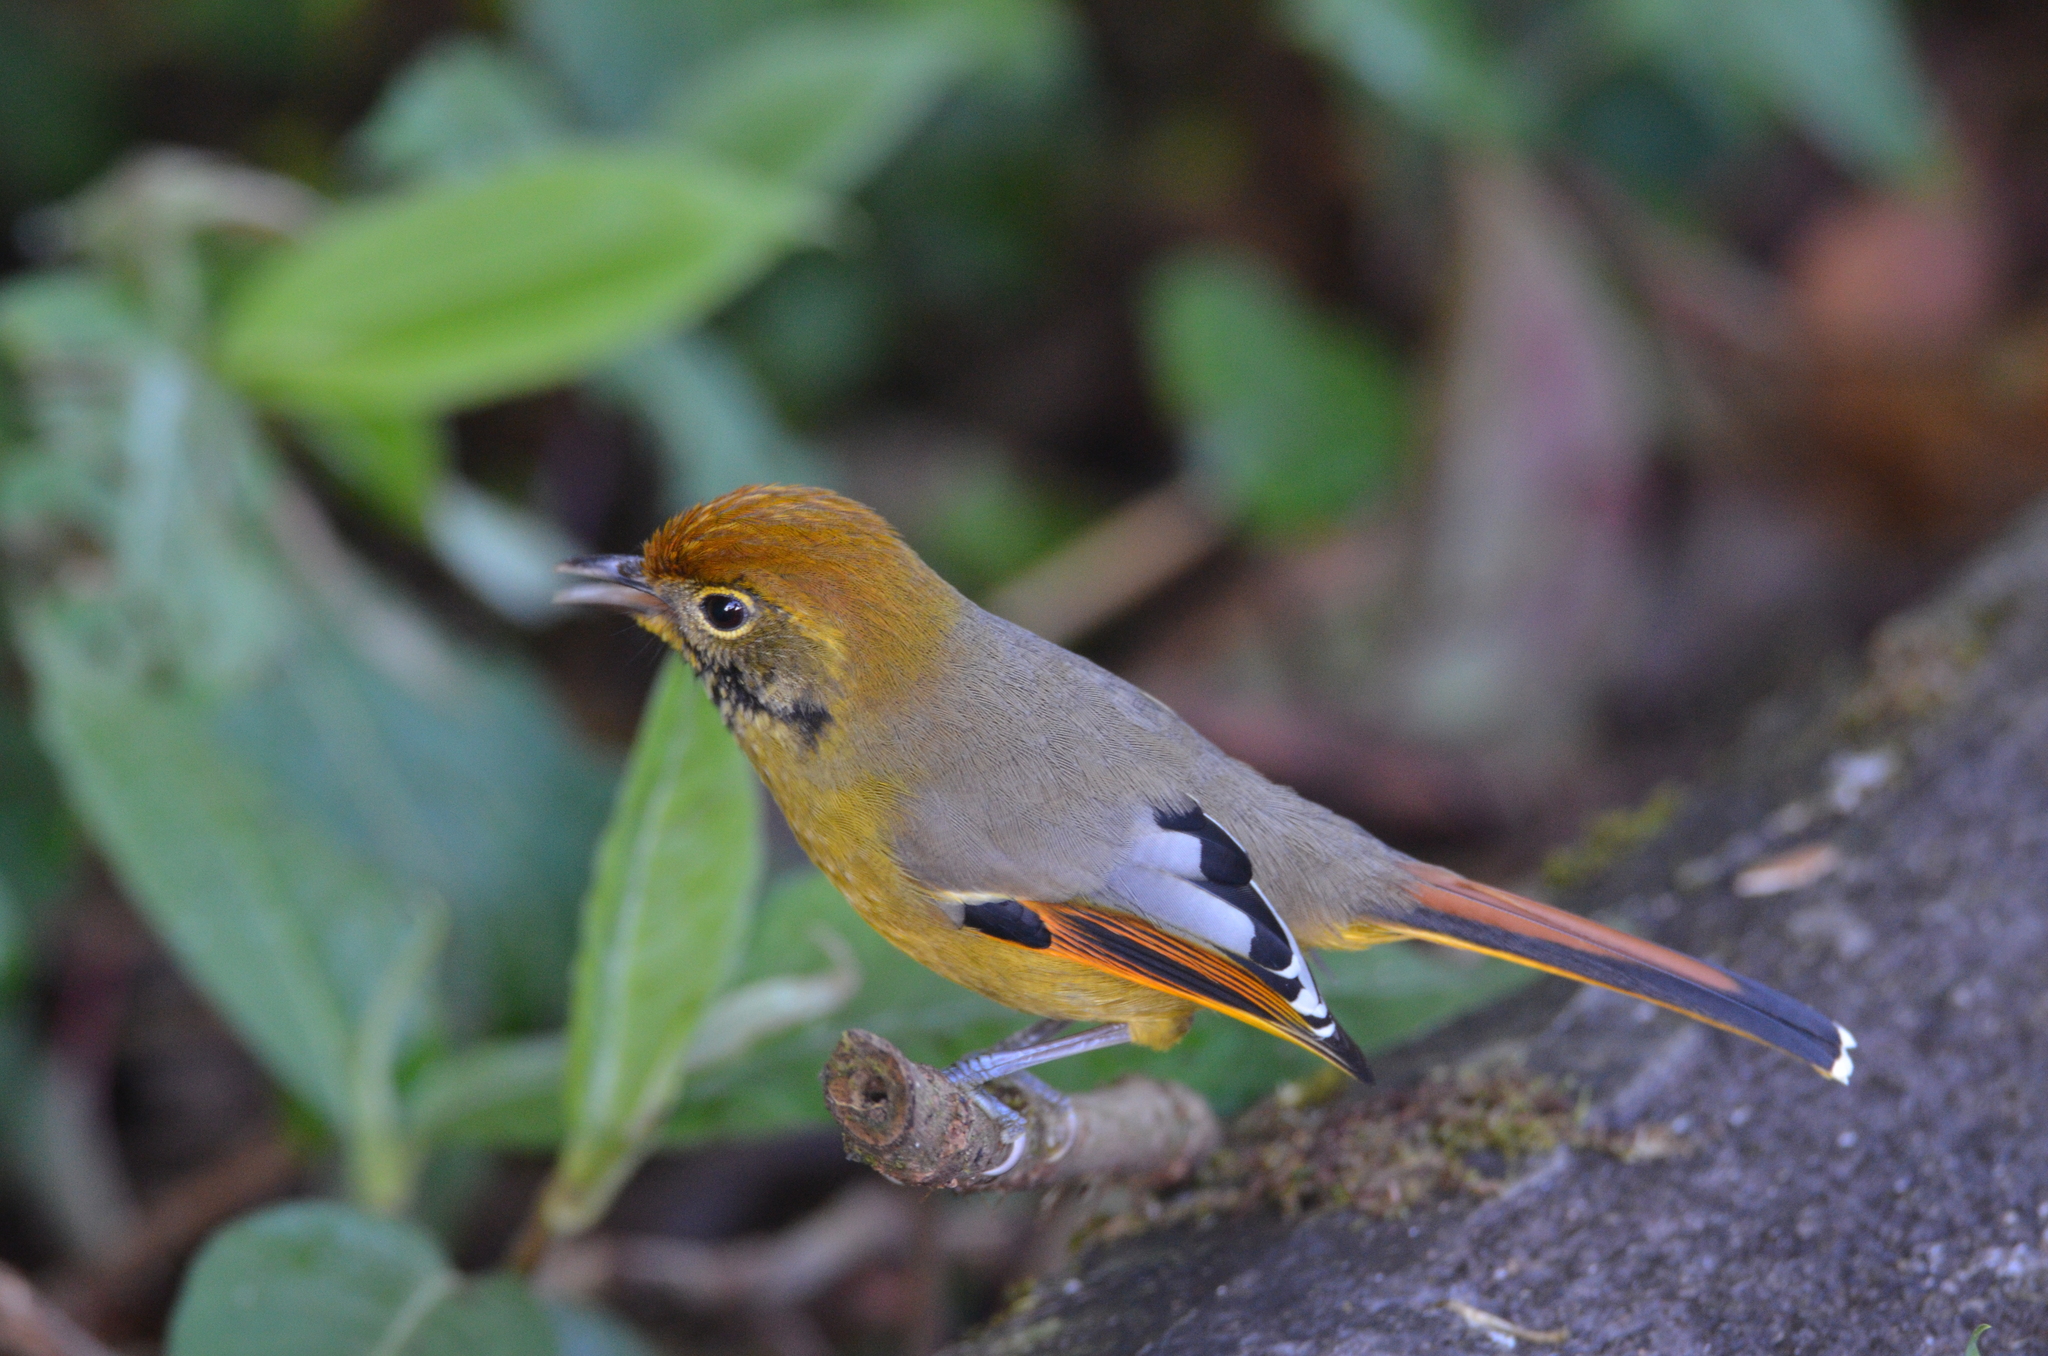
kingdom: Animalia
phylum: Chordata
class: Aves
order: Passeriformes
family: Leiothrichidae
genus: Minla
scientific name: Minla strigula
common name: Chestnut-tailed minla
